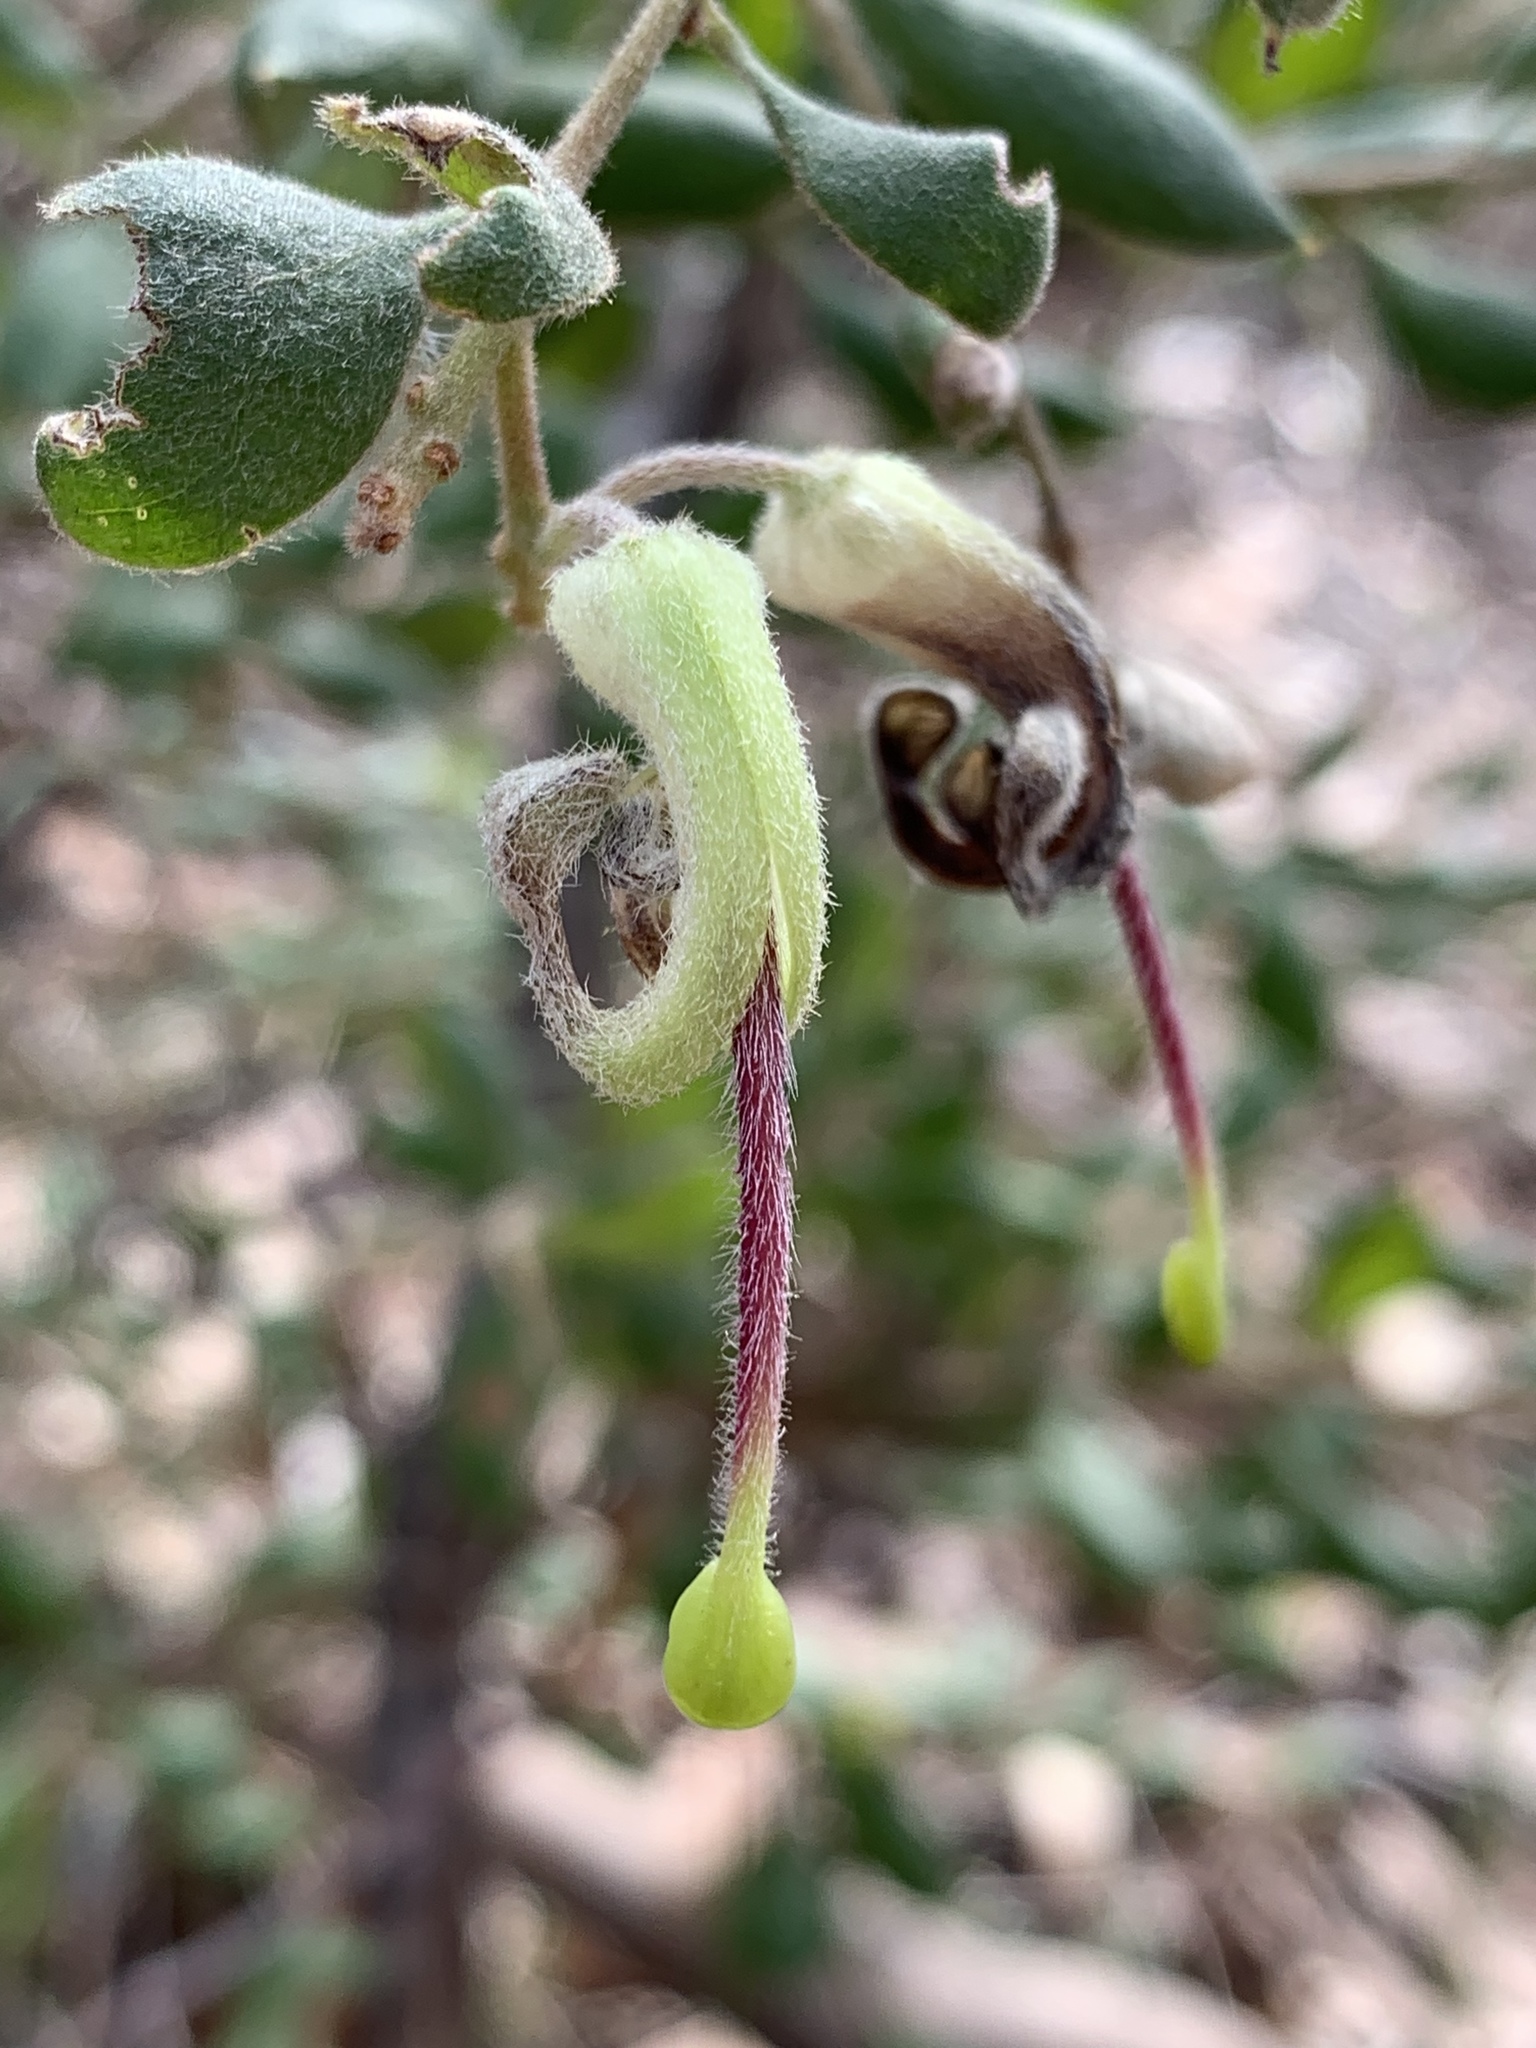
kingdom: Plantae
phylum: Tracheophyta
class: Magnoliopsida
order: Proteales
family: Proteaceae
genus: Grevillea
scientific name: Grevillea mucronulata
